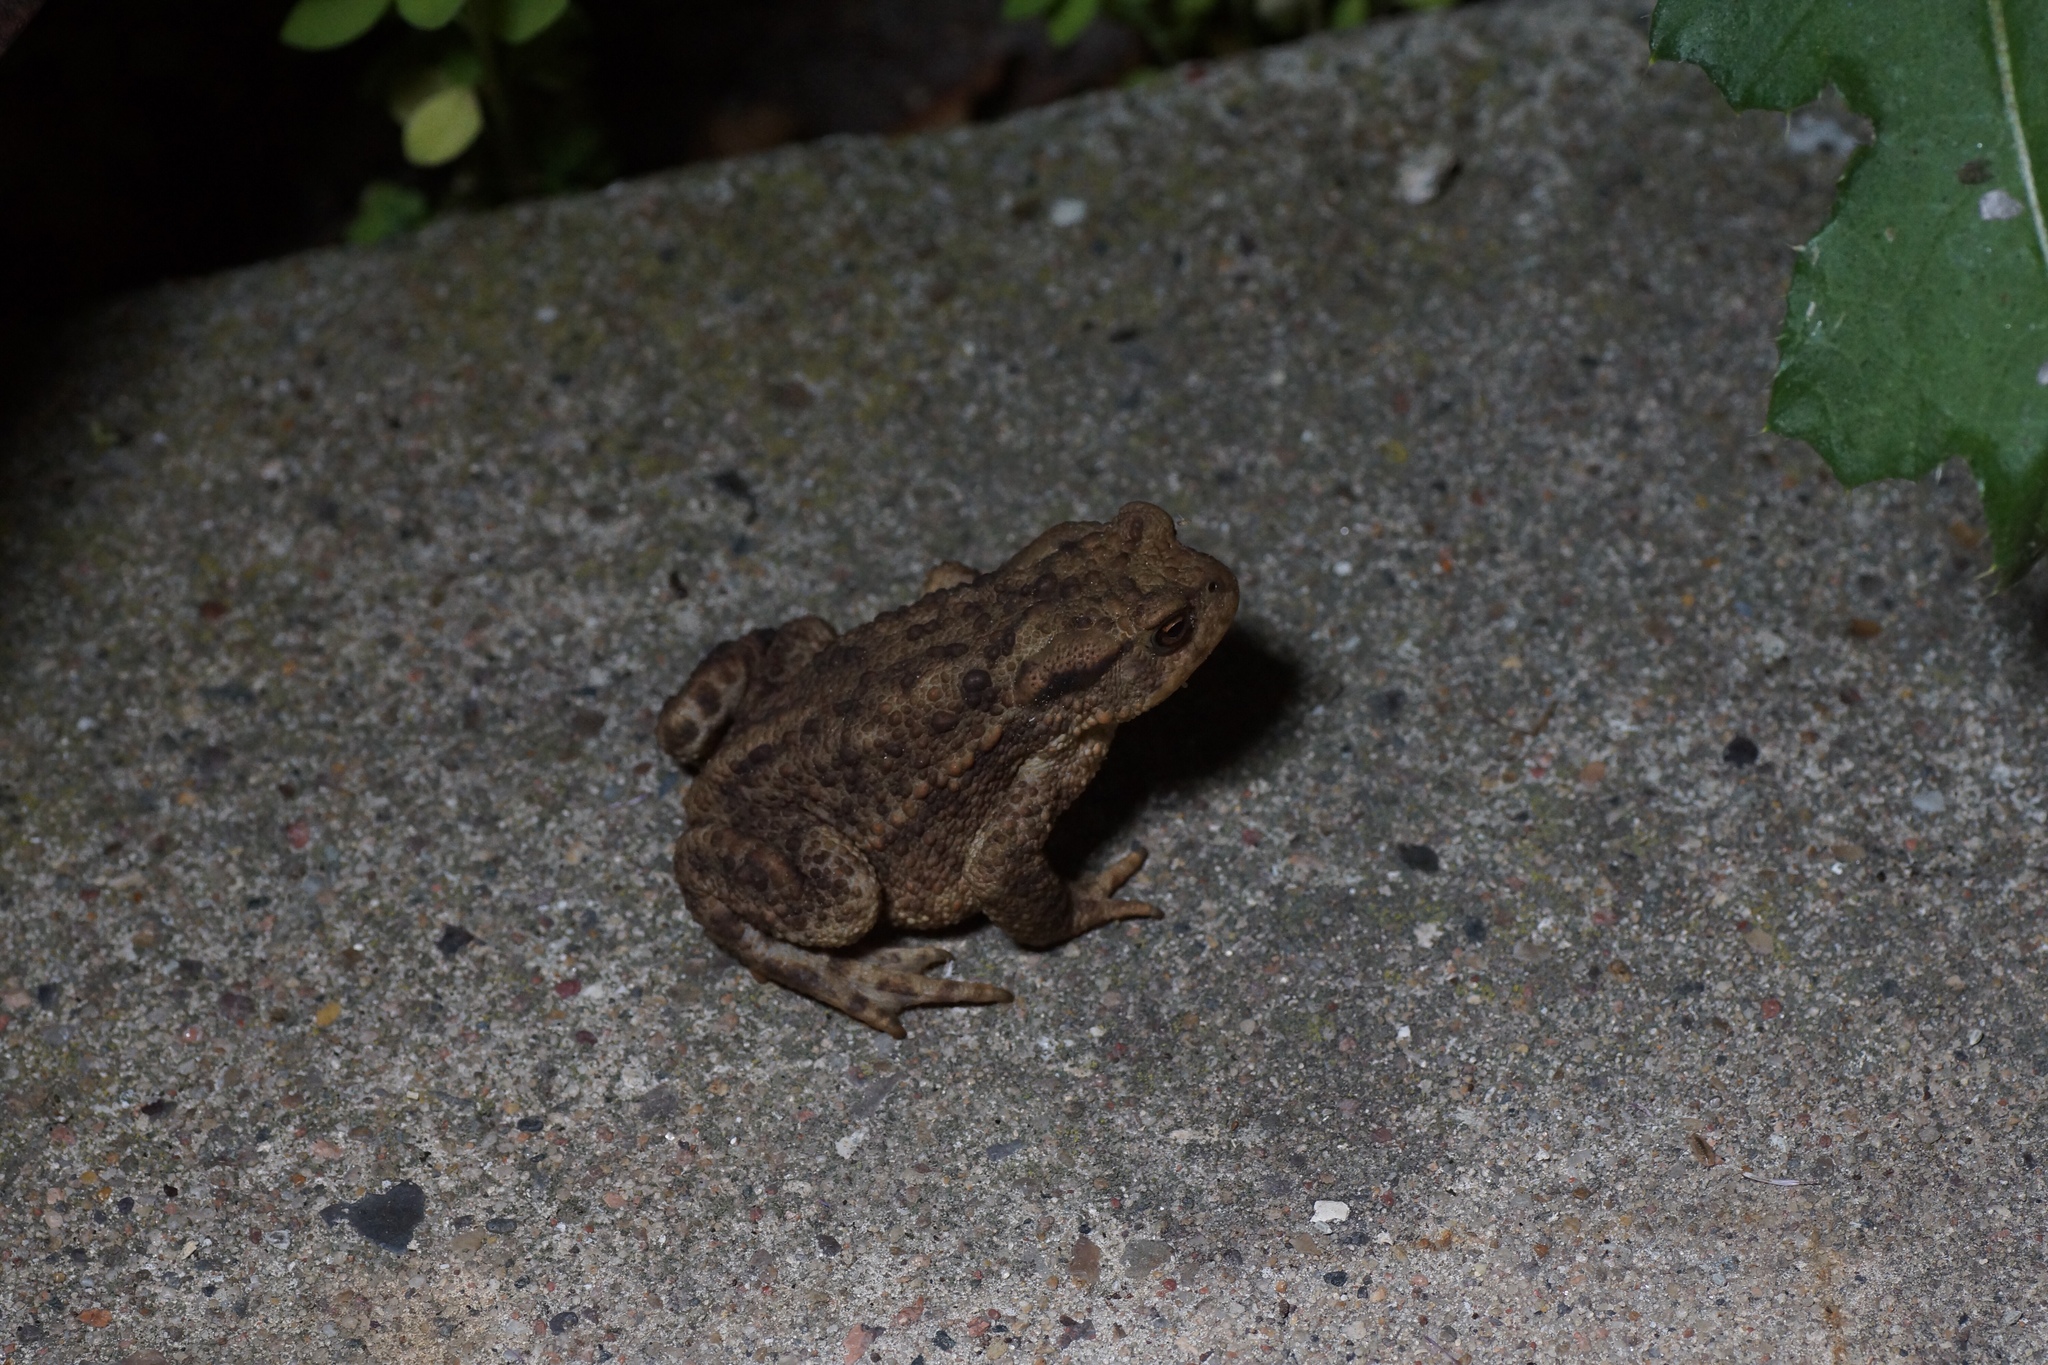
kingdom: Animalia
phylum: Chordata
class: Amphibia
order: Anura
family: Bufonidae
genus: Bufo
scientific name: Bufo bufo
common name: Common toad
